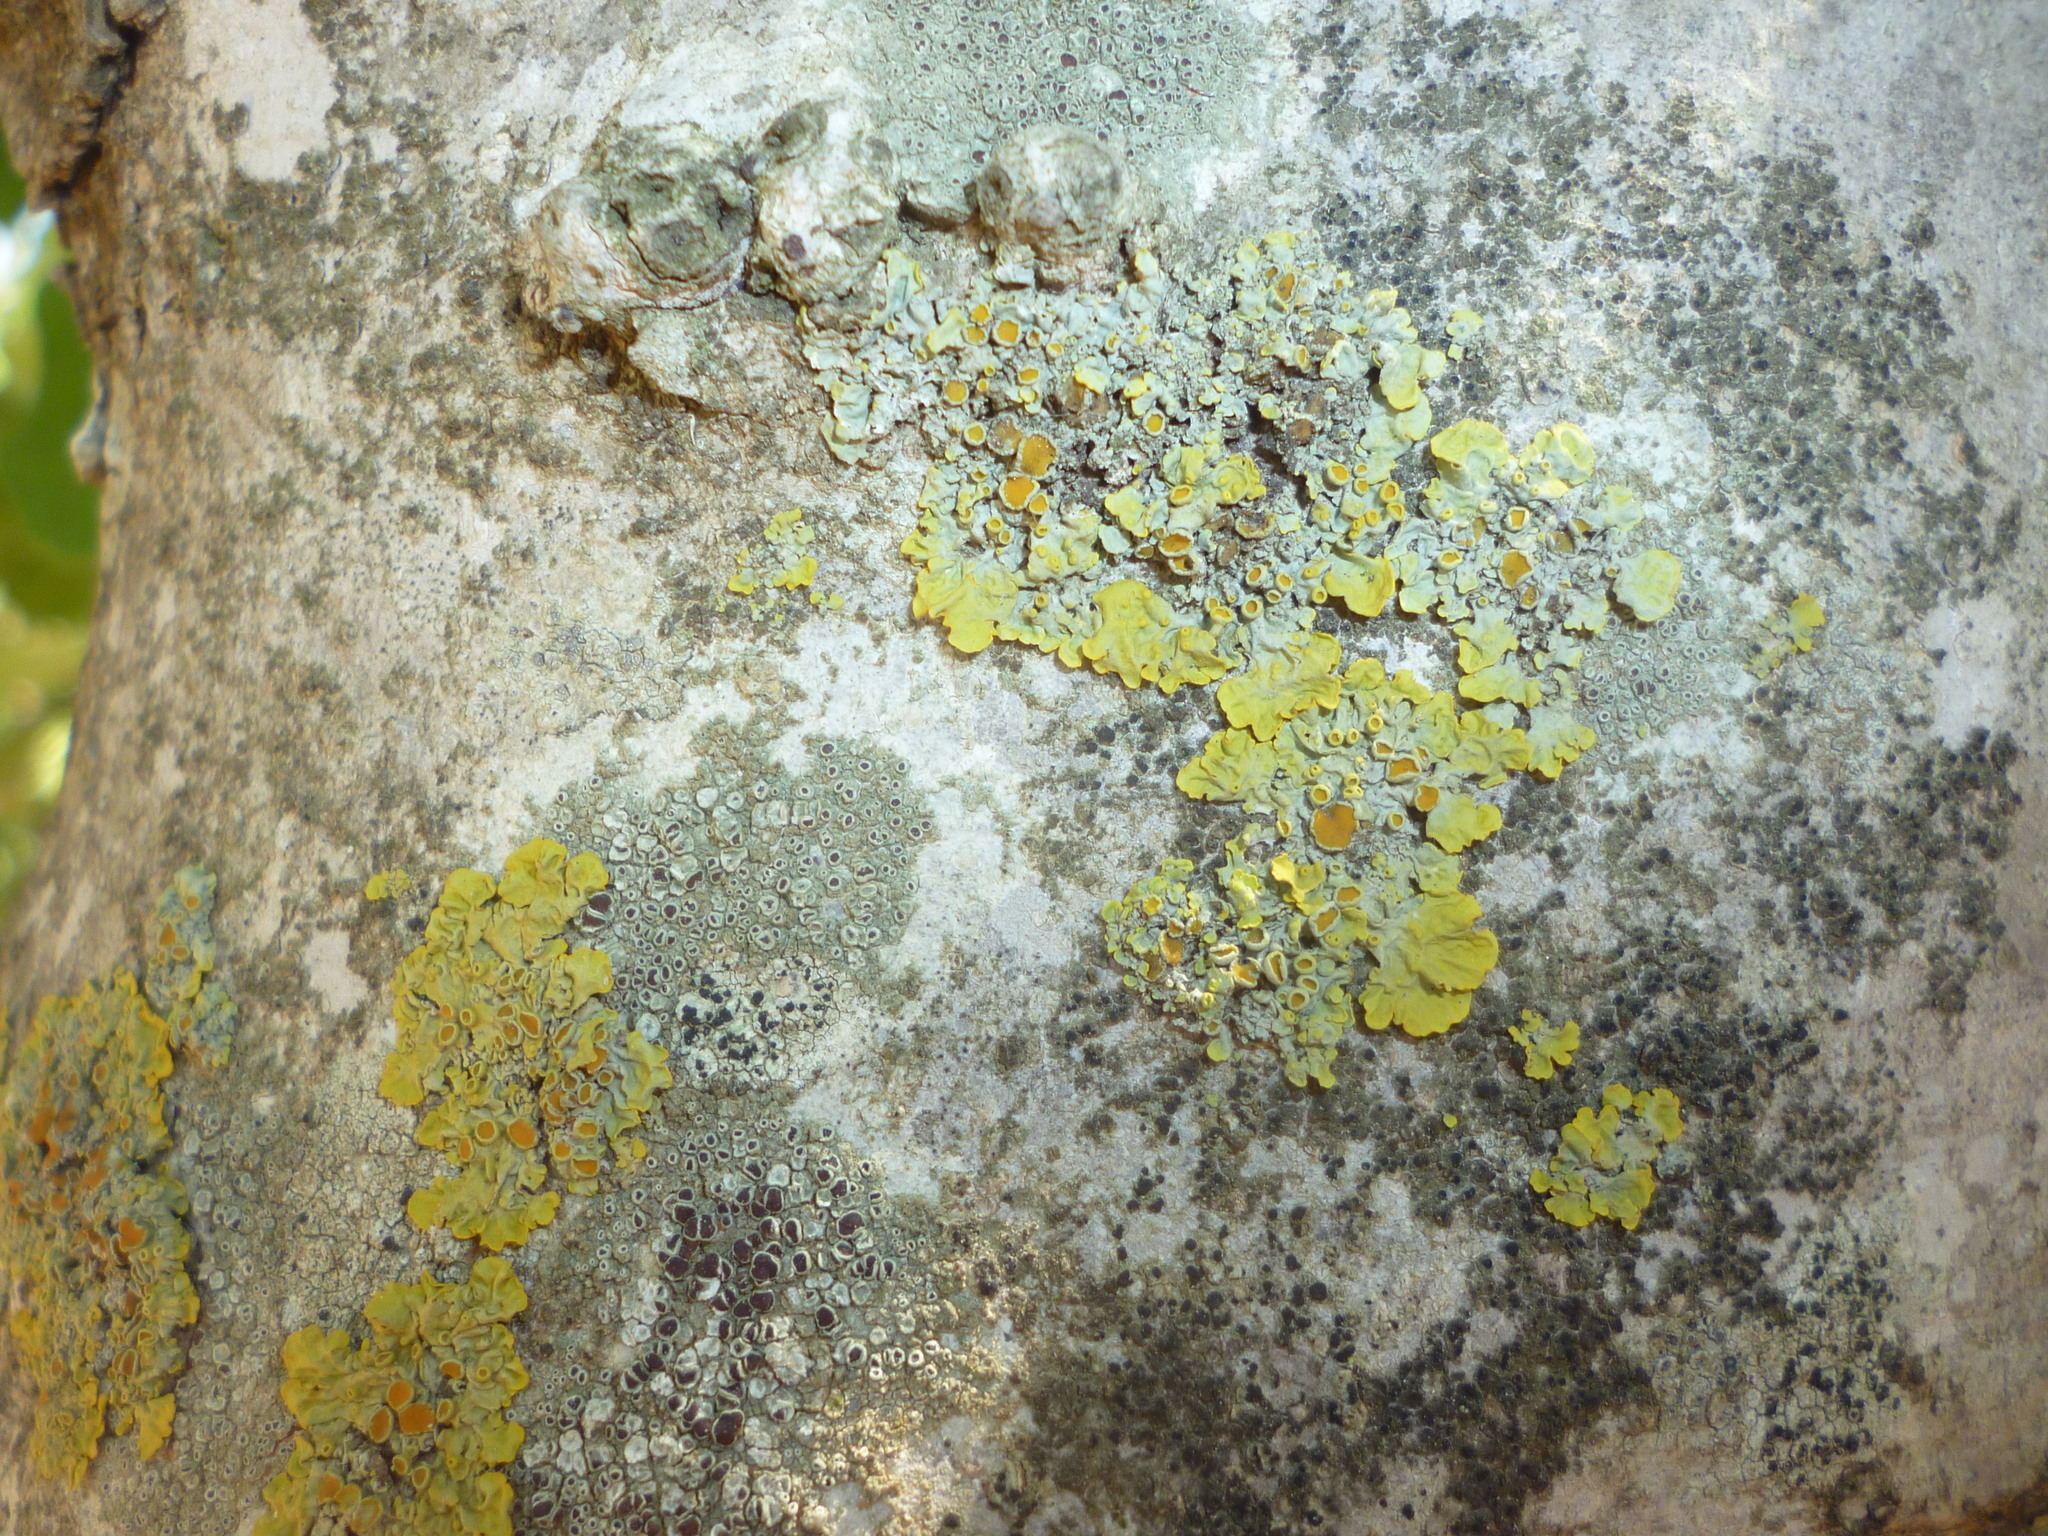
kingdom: Fungi
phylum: Ascomycota
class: Lecanoromycetes
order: Teloschistales
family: Teloschistaceae
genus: Xanthoria
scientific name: Xanthoria parietina
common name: Common orange lichen
